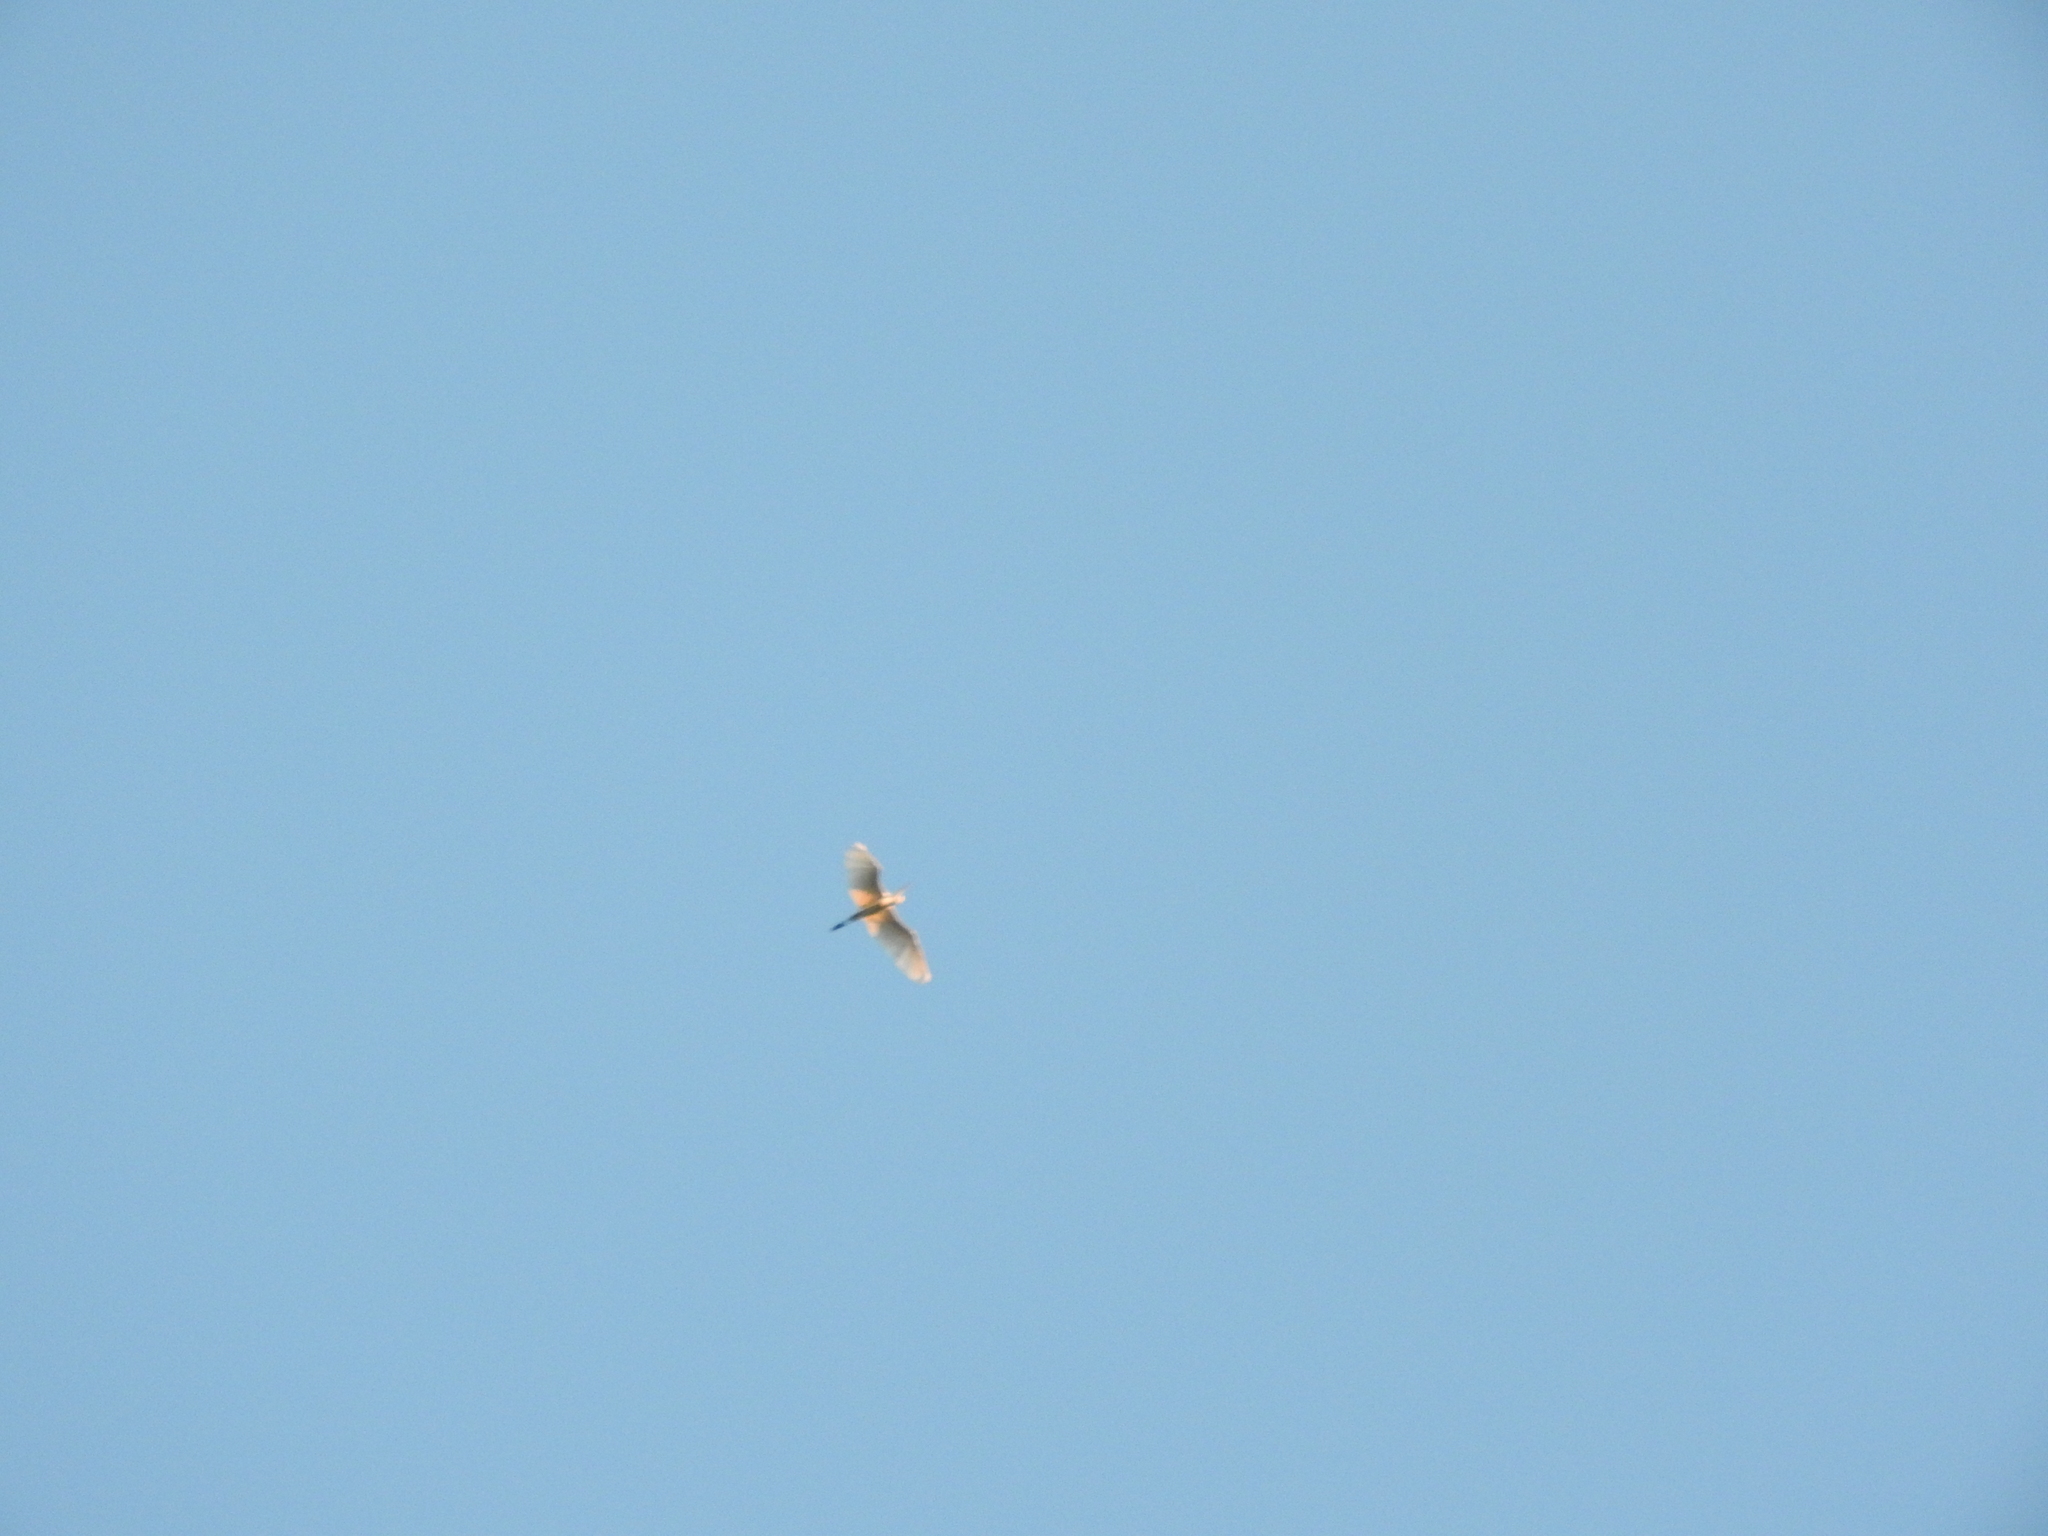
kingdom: Animalia
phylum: Chordata
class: Aves
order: Pelecaniformes
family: Ardeidae
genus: Ardea
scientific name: Ardea alba
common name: Great egret
